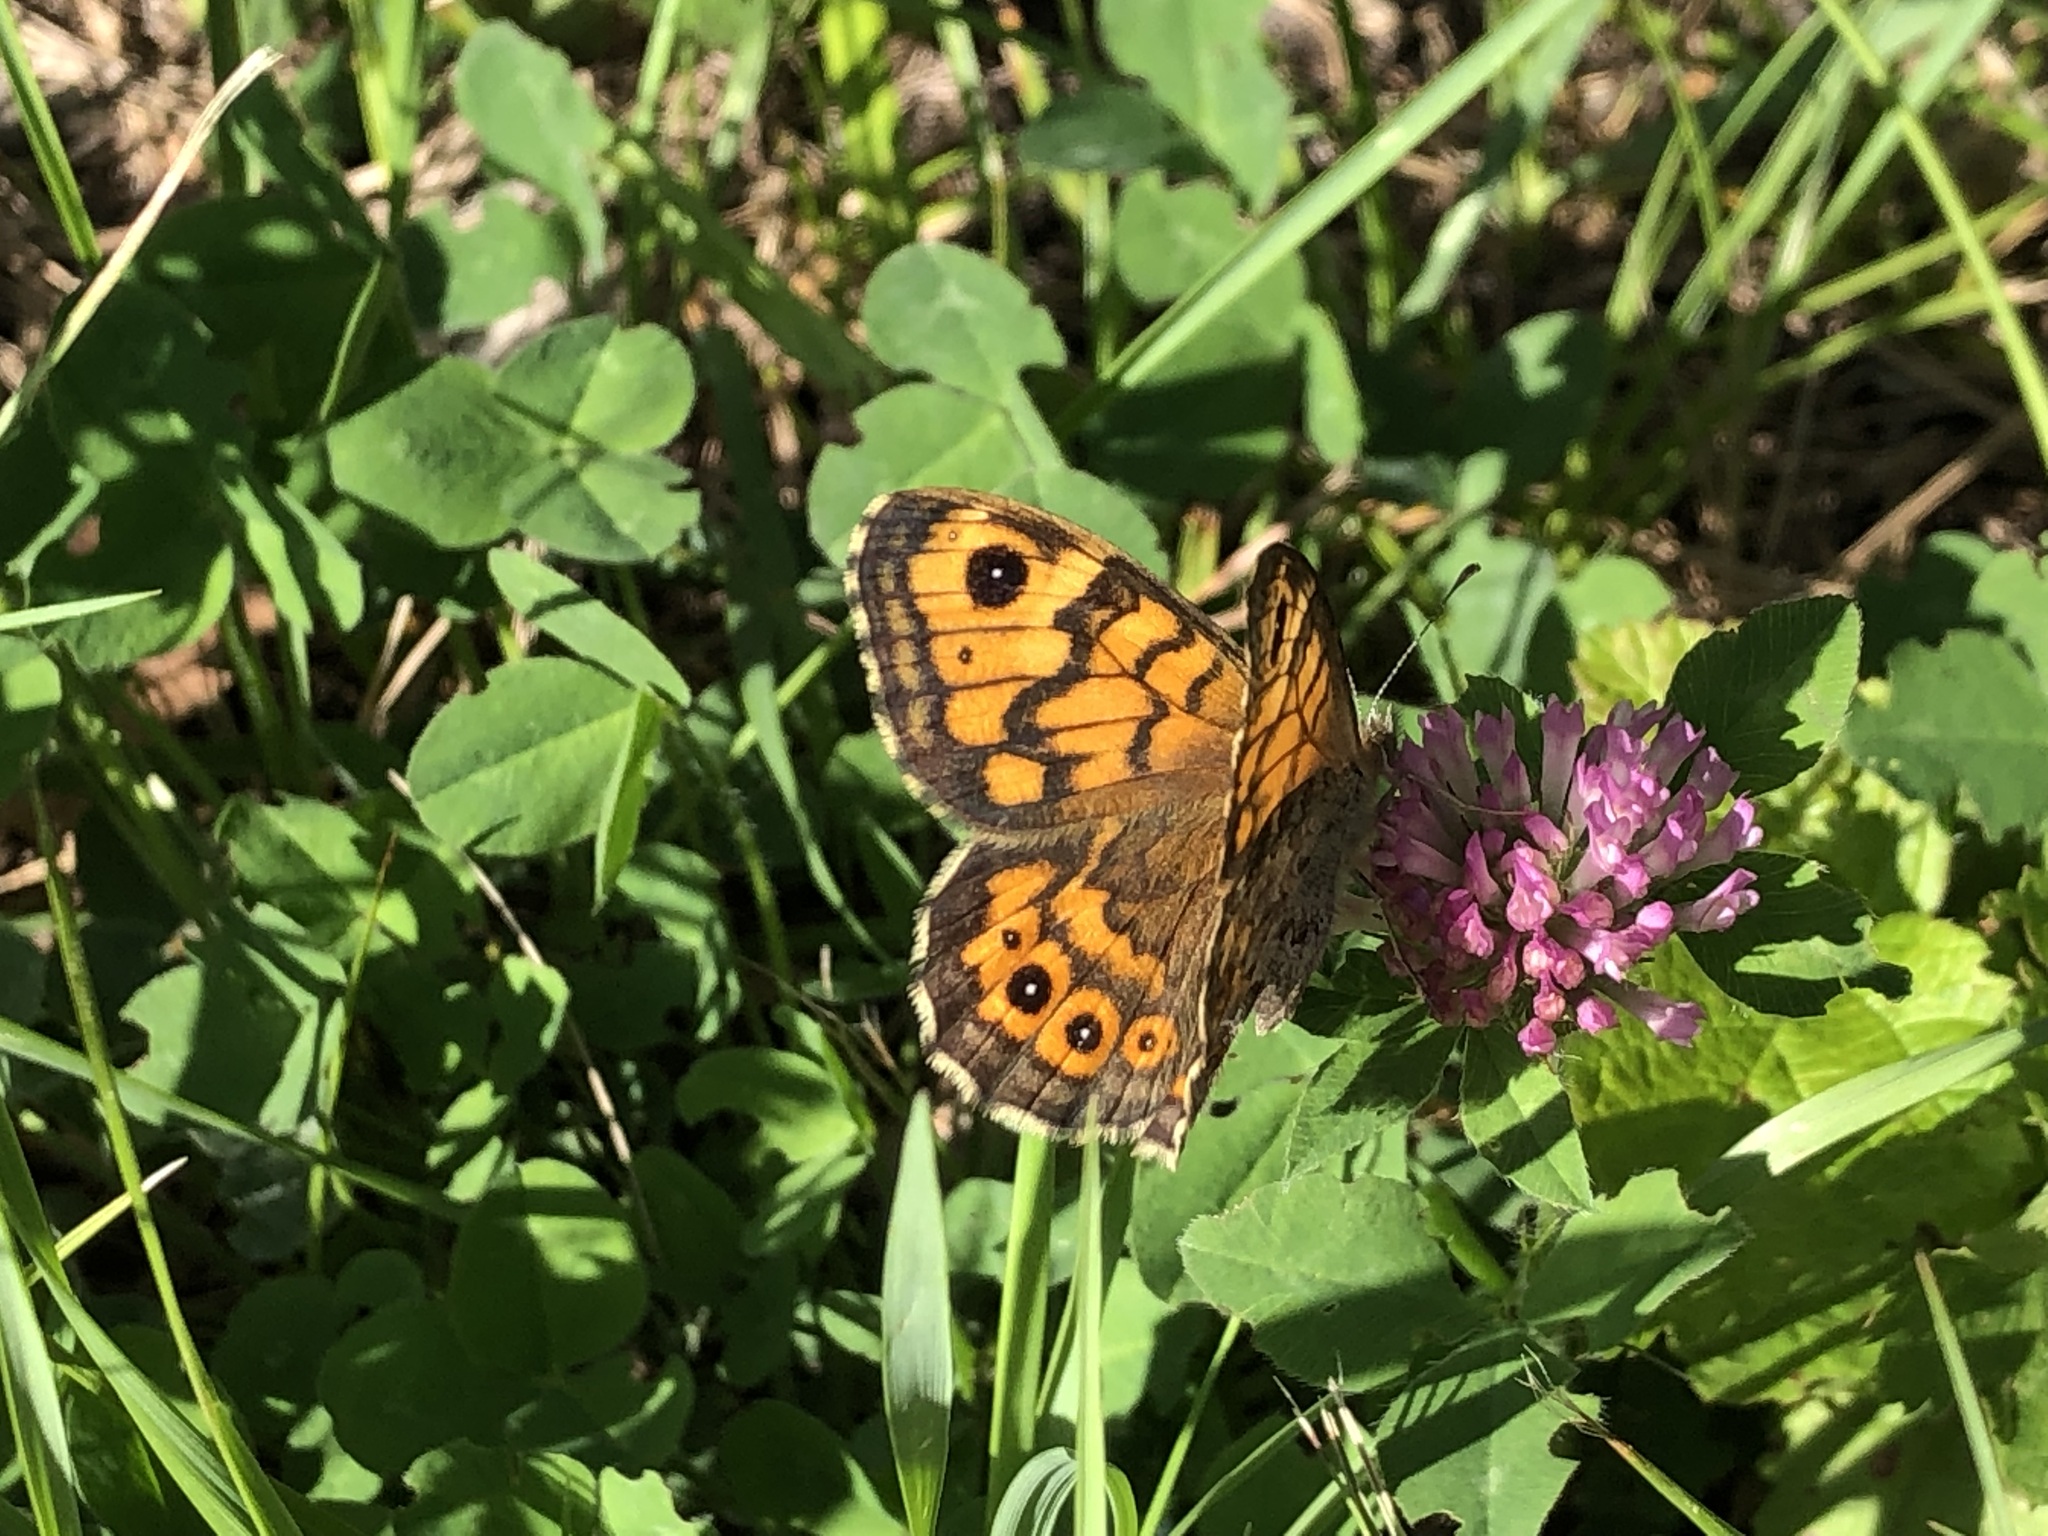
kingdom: Animalia
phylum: Arthropoda
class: Insecta
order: Lepidoptera
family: Nymphalidae
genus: Pararge
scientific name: Pararge Lasiommata megera
